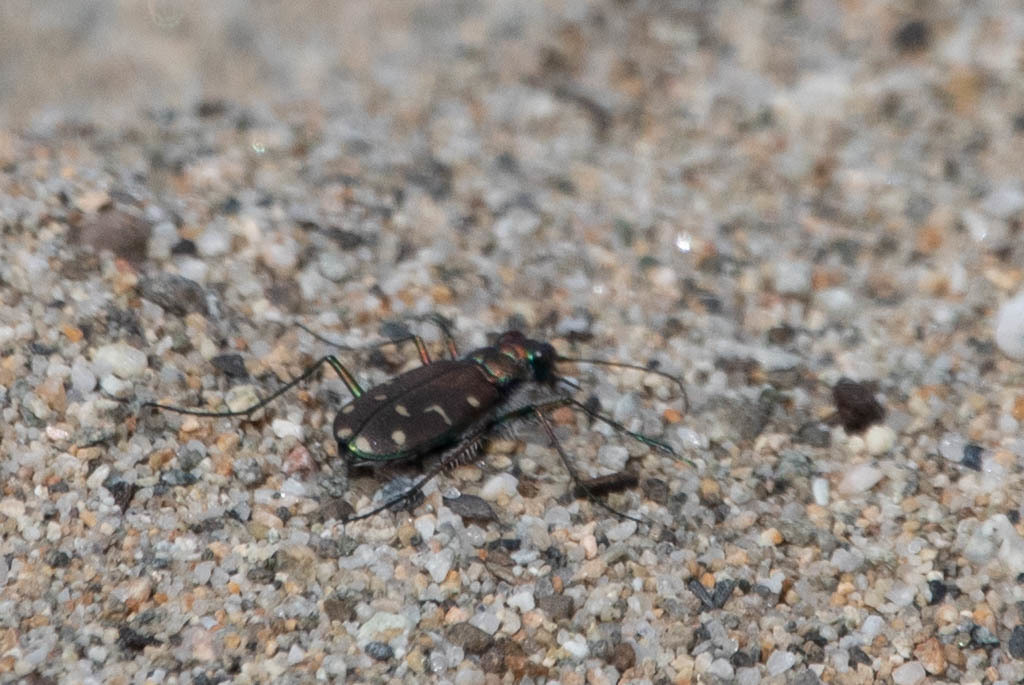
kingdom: Animalia
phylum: Arthropoda
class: Insecta
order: Coleoptera
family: Carabidae
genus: Cicindela
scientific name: Cicindela oregona
